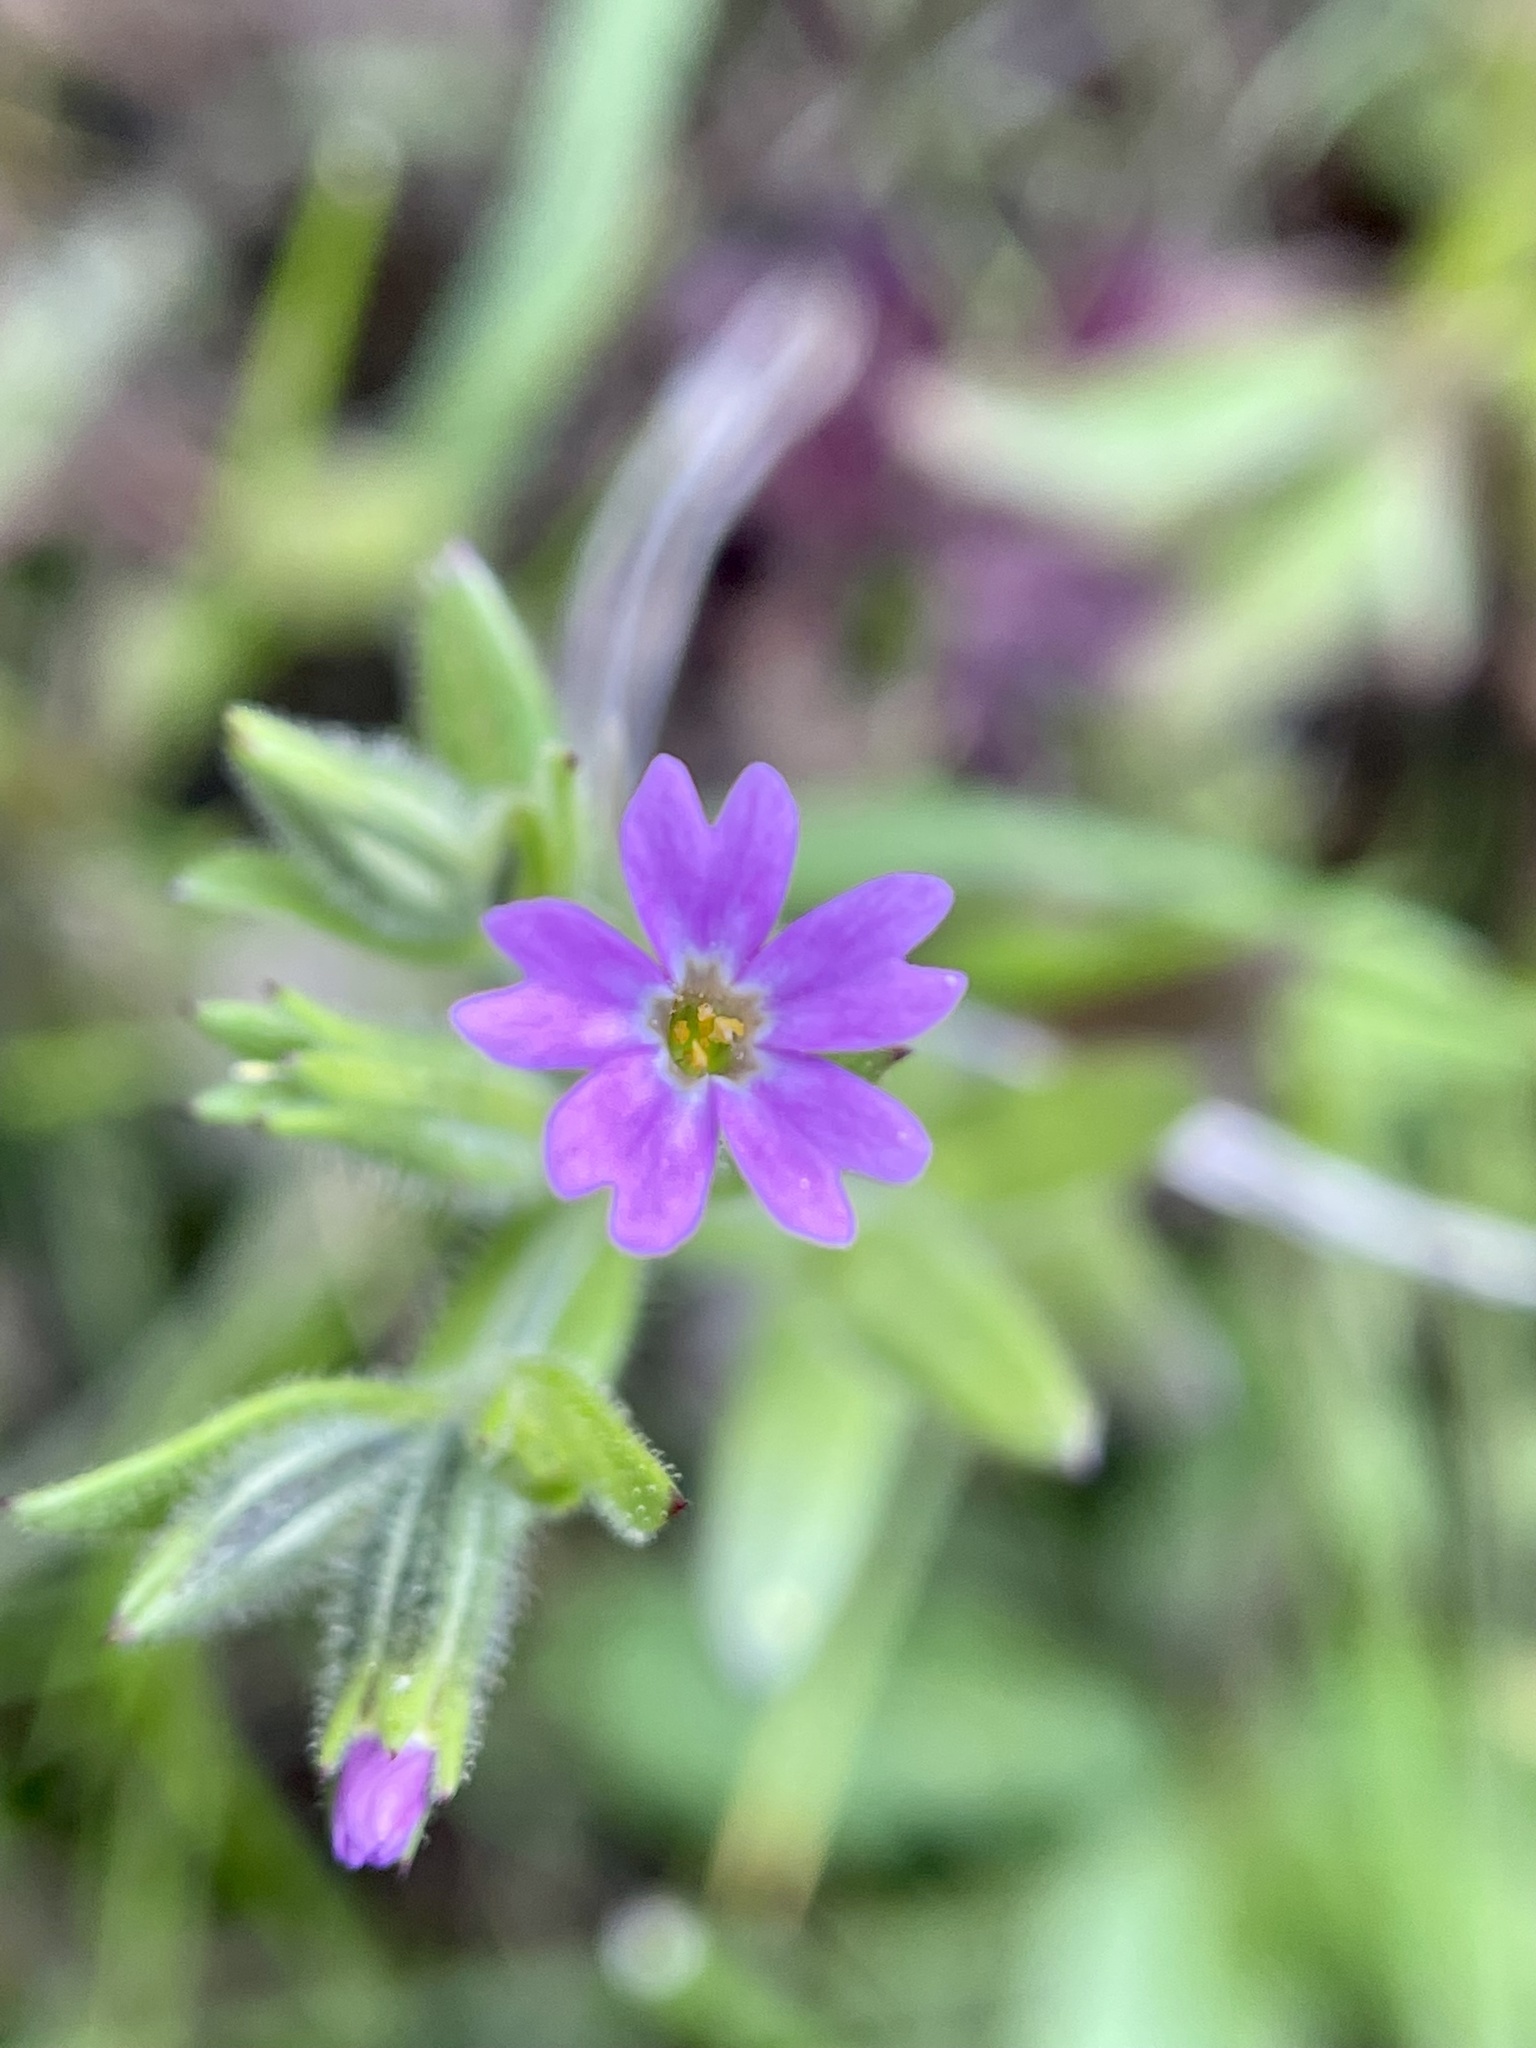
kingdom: Plantae
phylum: Tracheophyta
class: Magnoliopsida
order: Ericales
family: Polemoniaceae
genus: Phlox
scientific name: Phlox gracilis
